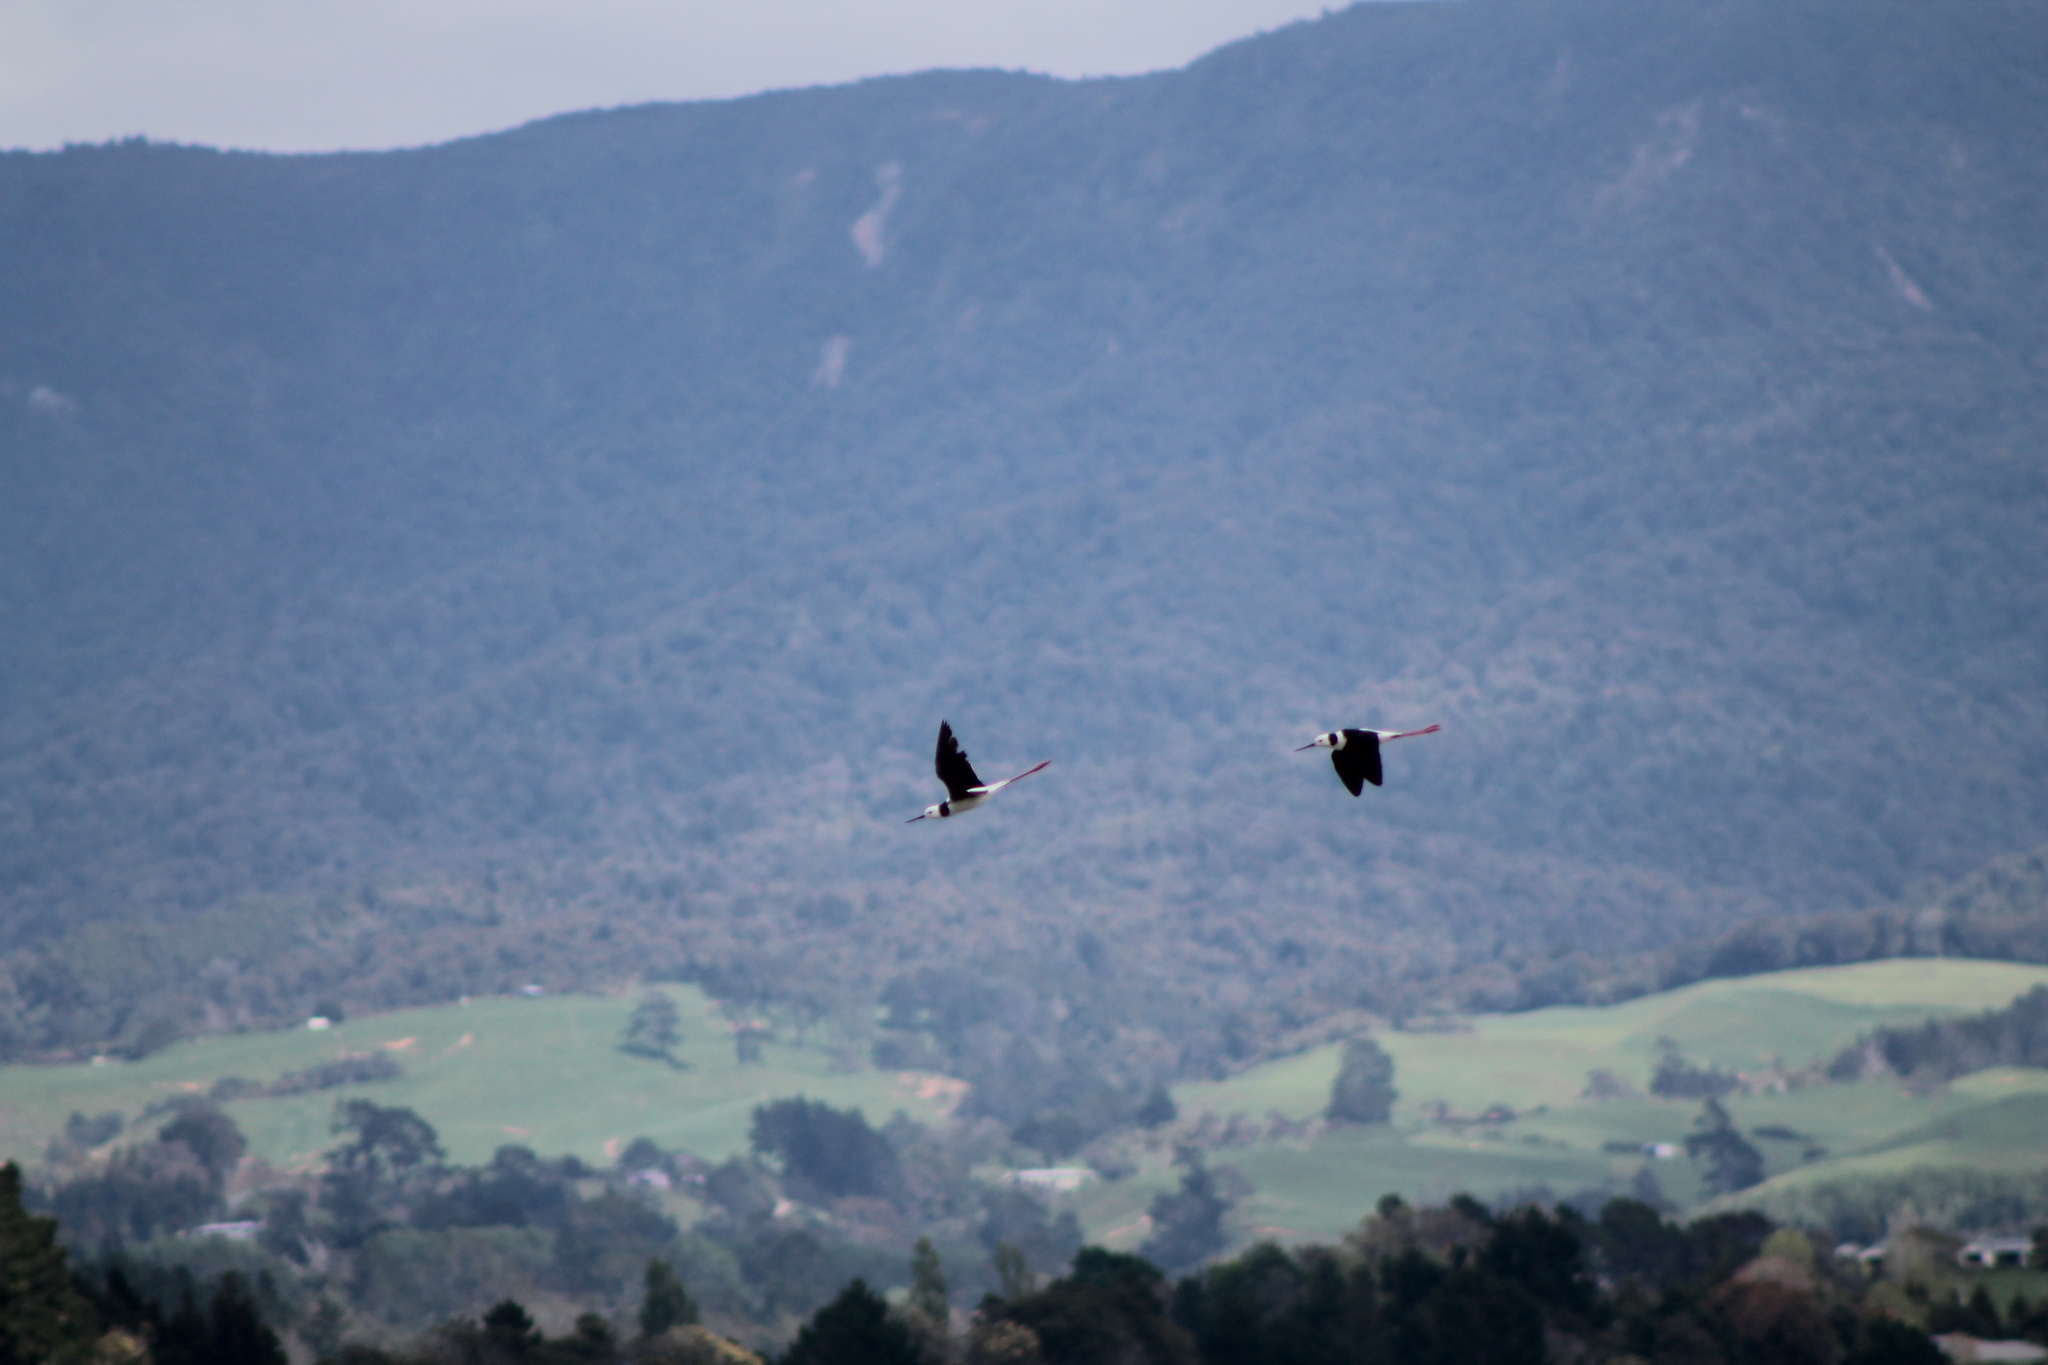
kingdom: Animalia
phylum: Chordata
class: Aves
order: Charadriiformes
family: Recurvirostridae
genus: Himantopus
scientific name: Himantopus leucocephalus
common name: White-headed stilt
